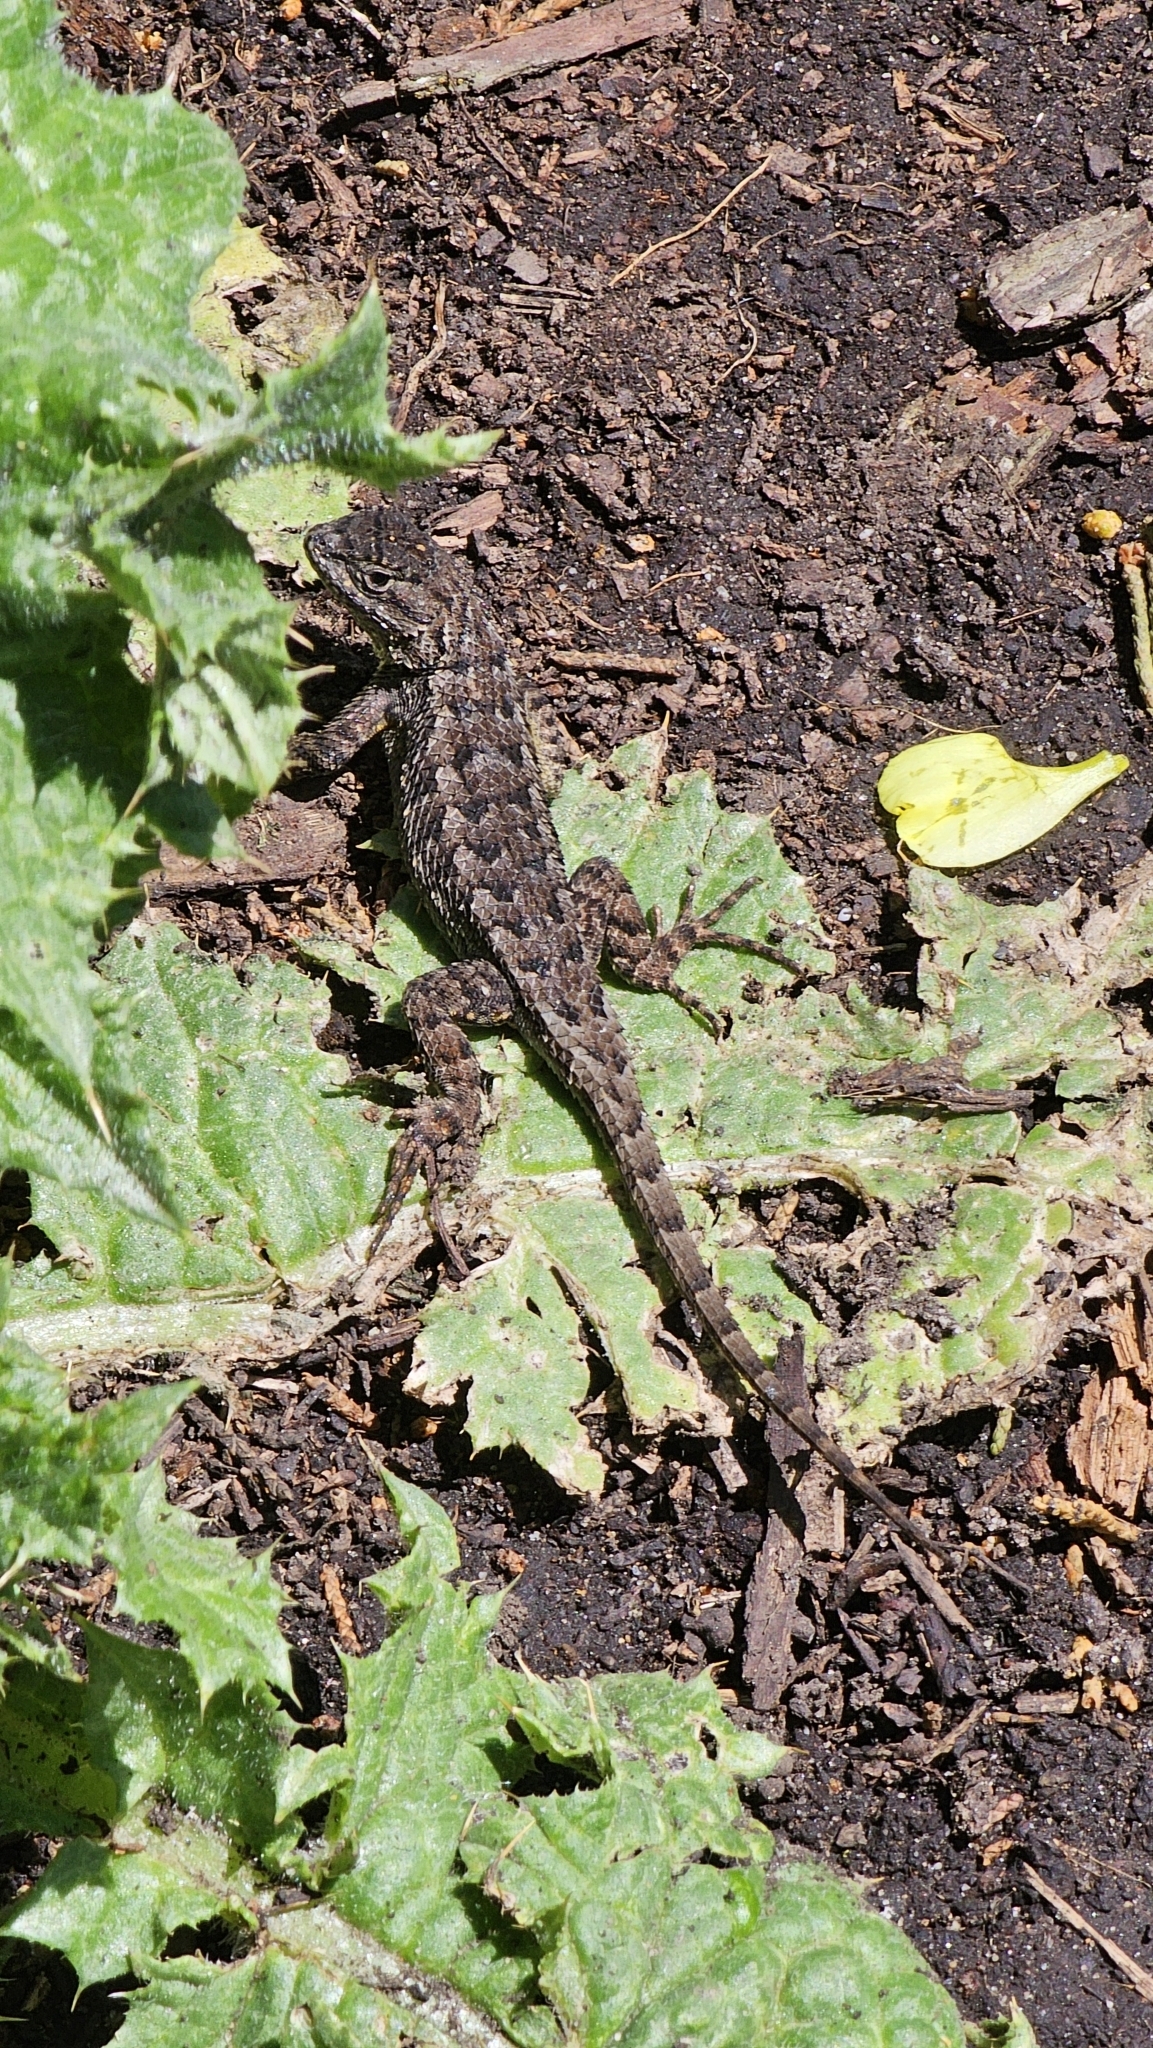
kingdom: Animalia
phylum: Chordata
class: Squamata
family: Phrynosomatidae
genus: Sceloporus
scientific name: Sceloporus occidentalis
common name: Western fence lizard
